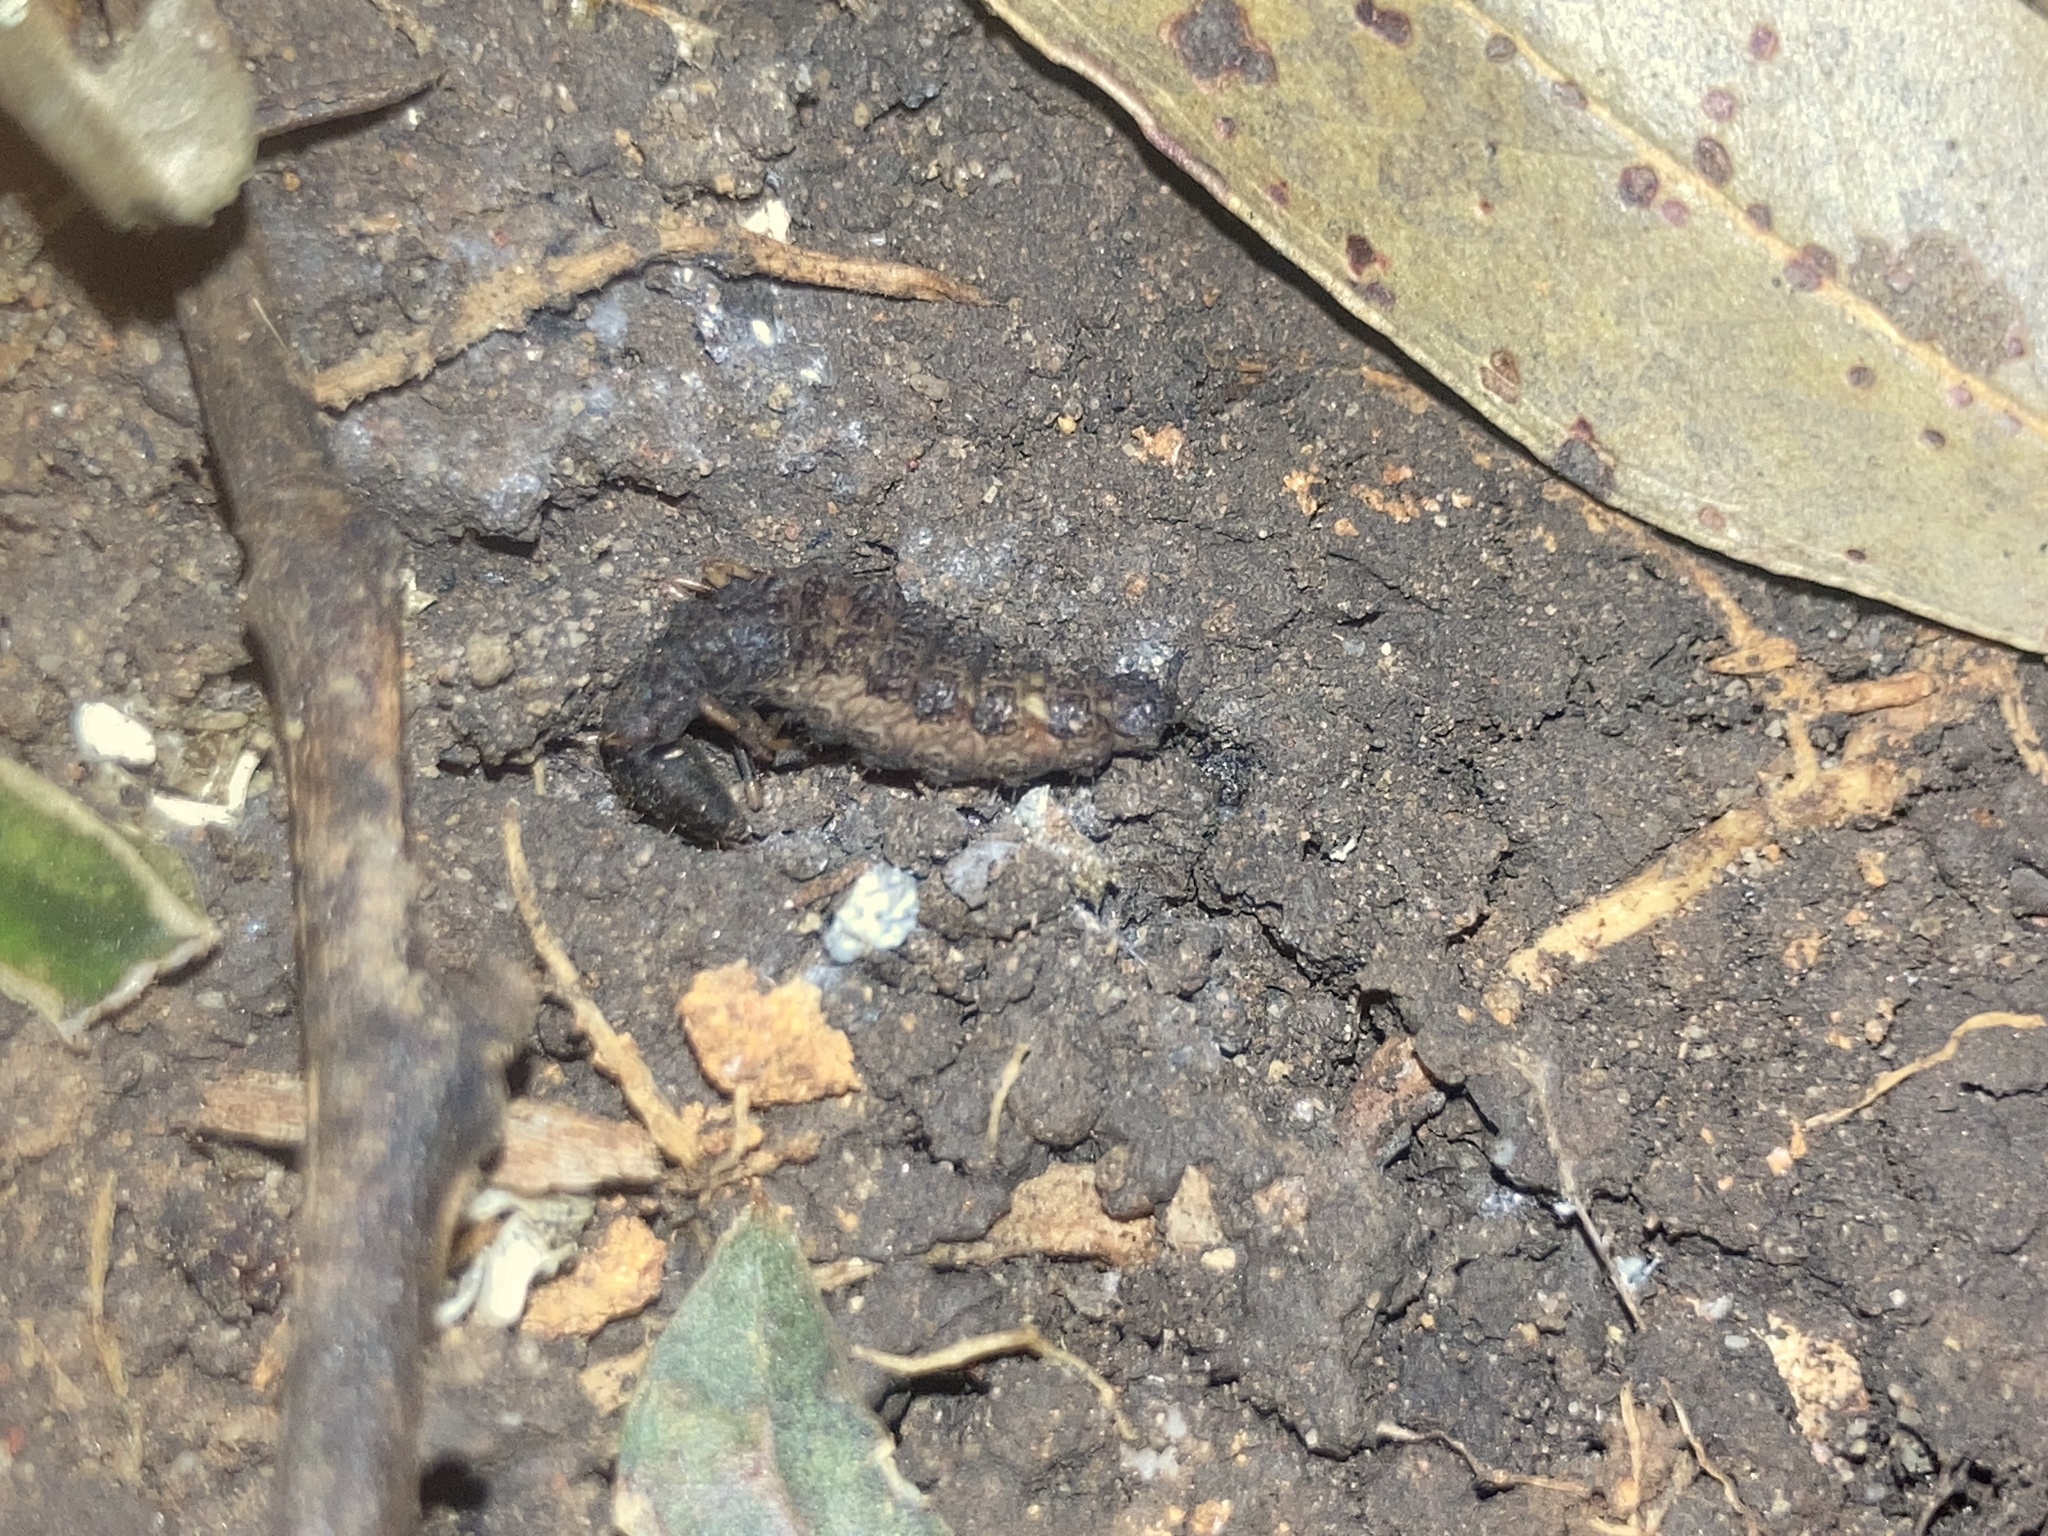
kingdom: Animalia
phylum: Arthropoda
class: Insecta
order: Coleoptera
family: Staphylinidae
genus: Antimerus
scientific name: Antimerus punctipennis
